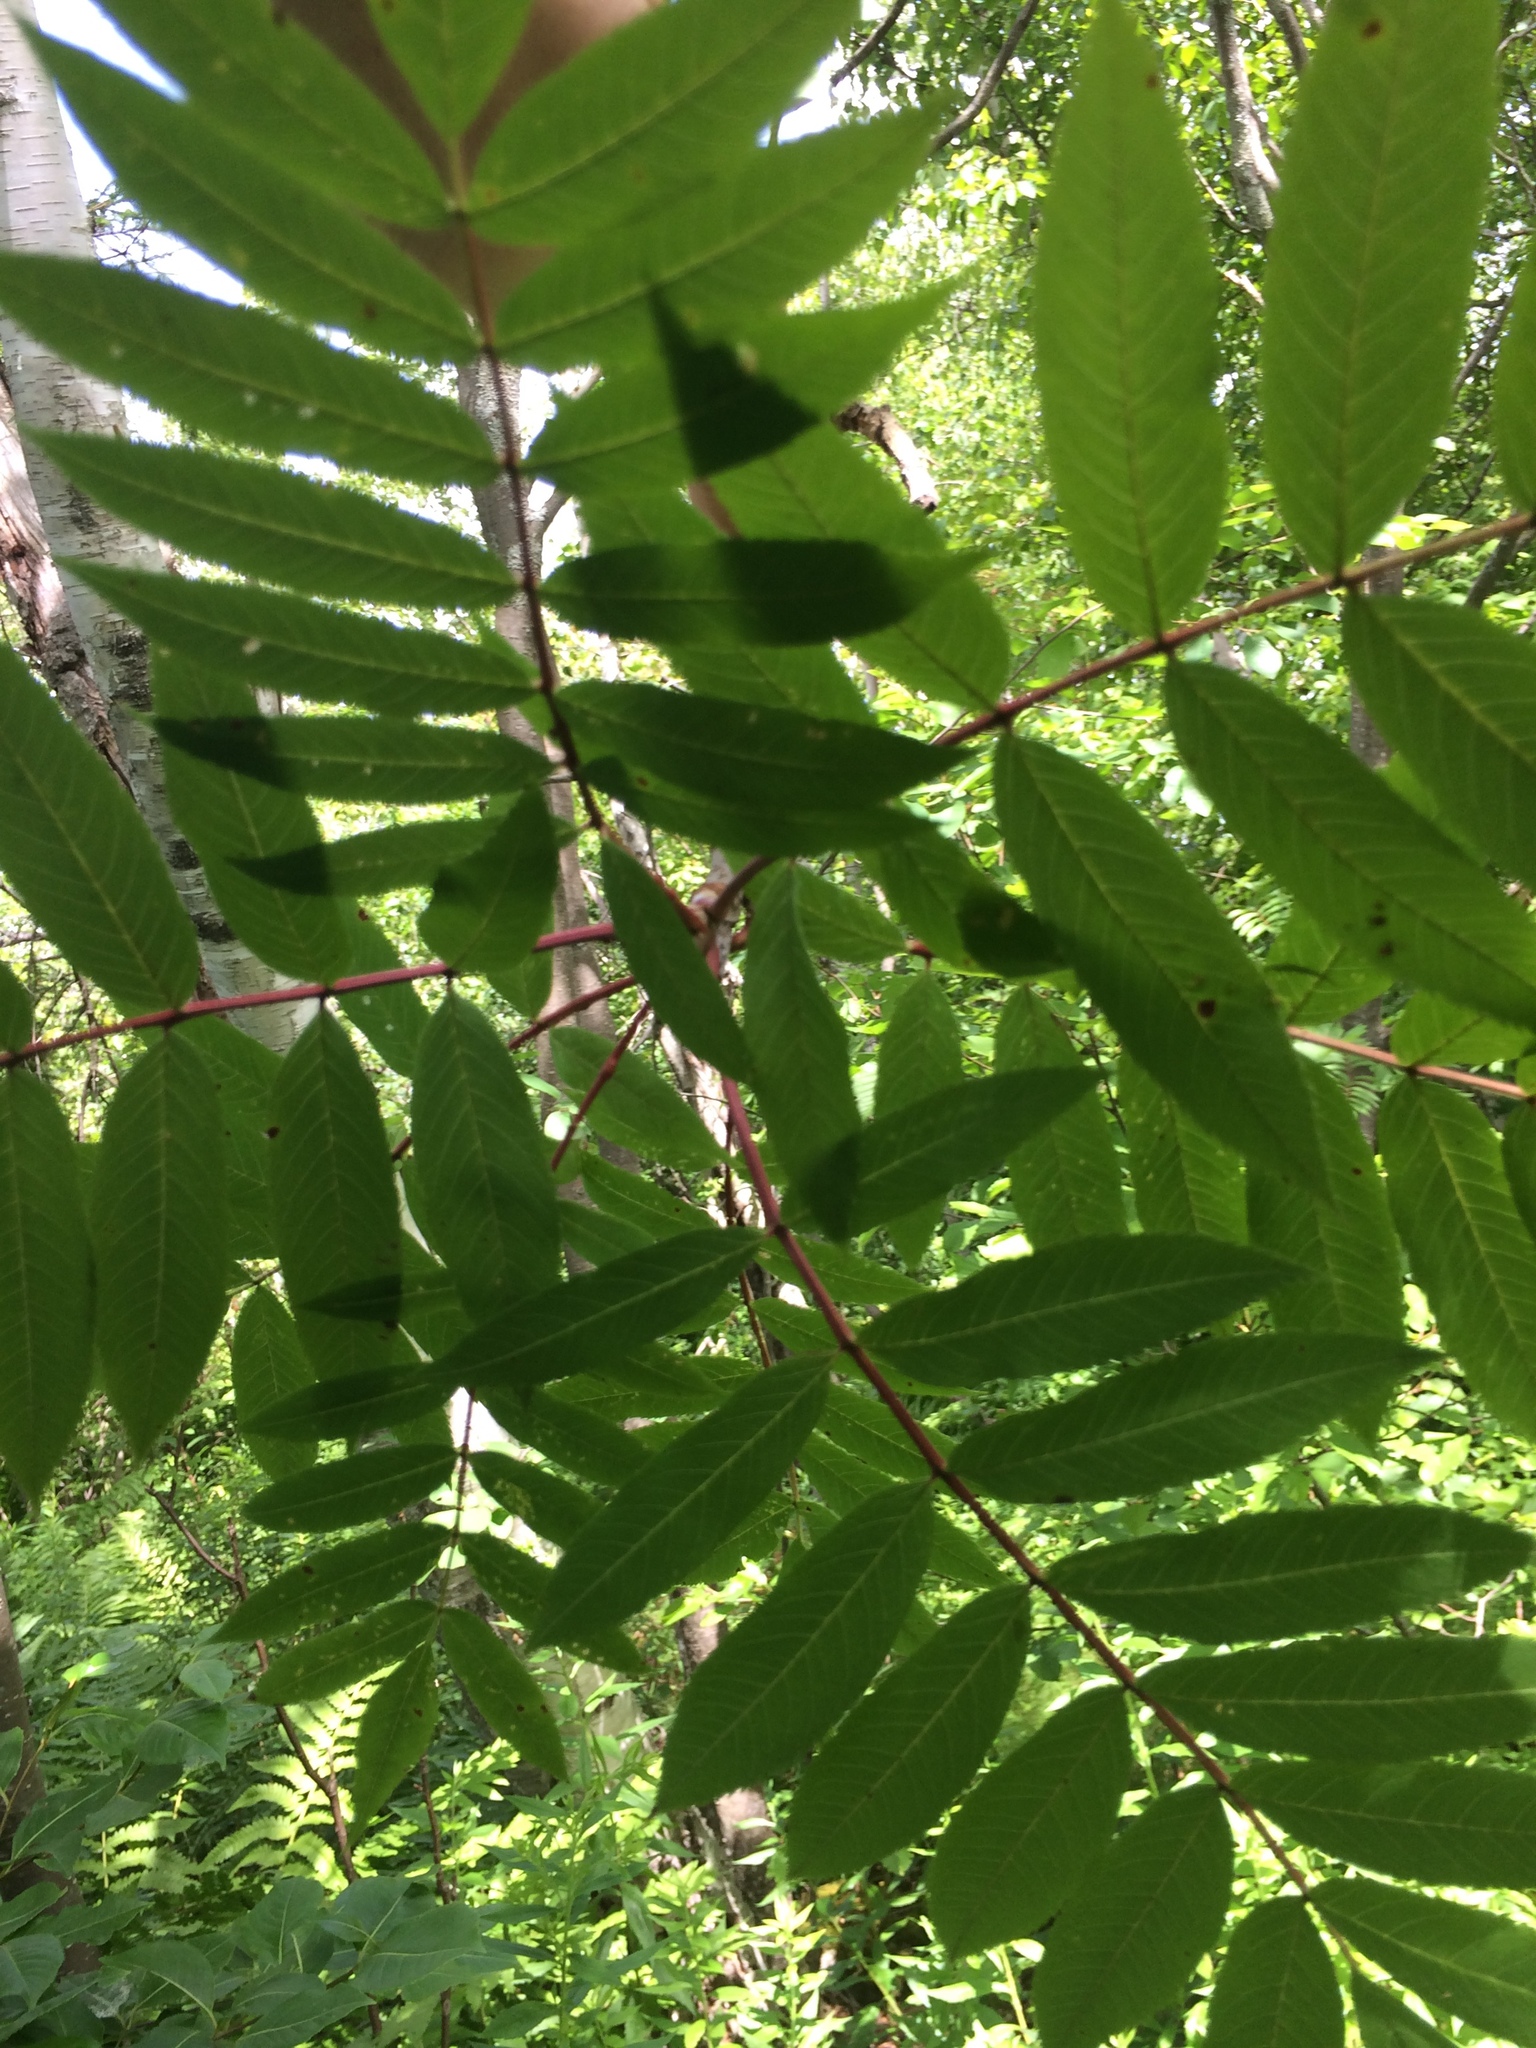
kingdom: Plantae
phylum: Tracheophyta
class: Magnoliopsida
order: Rosales
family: Rosaceae
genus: Sorbus
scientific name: Sorbus americana
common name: American mountain-ash
